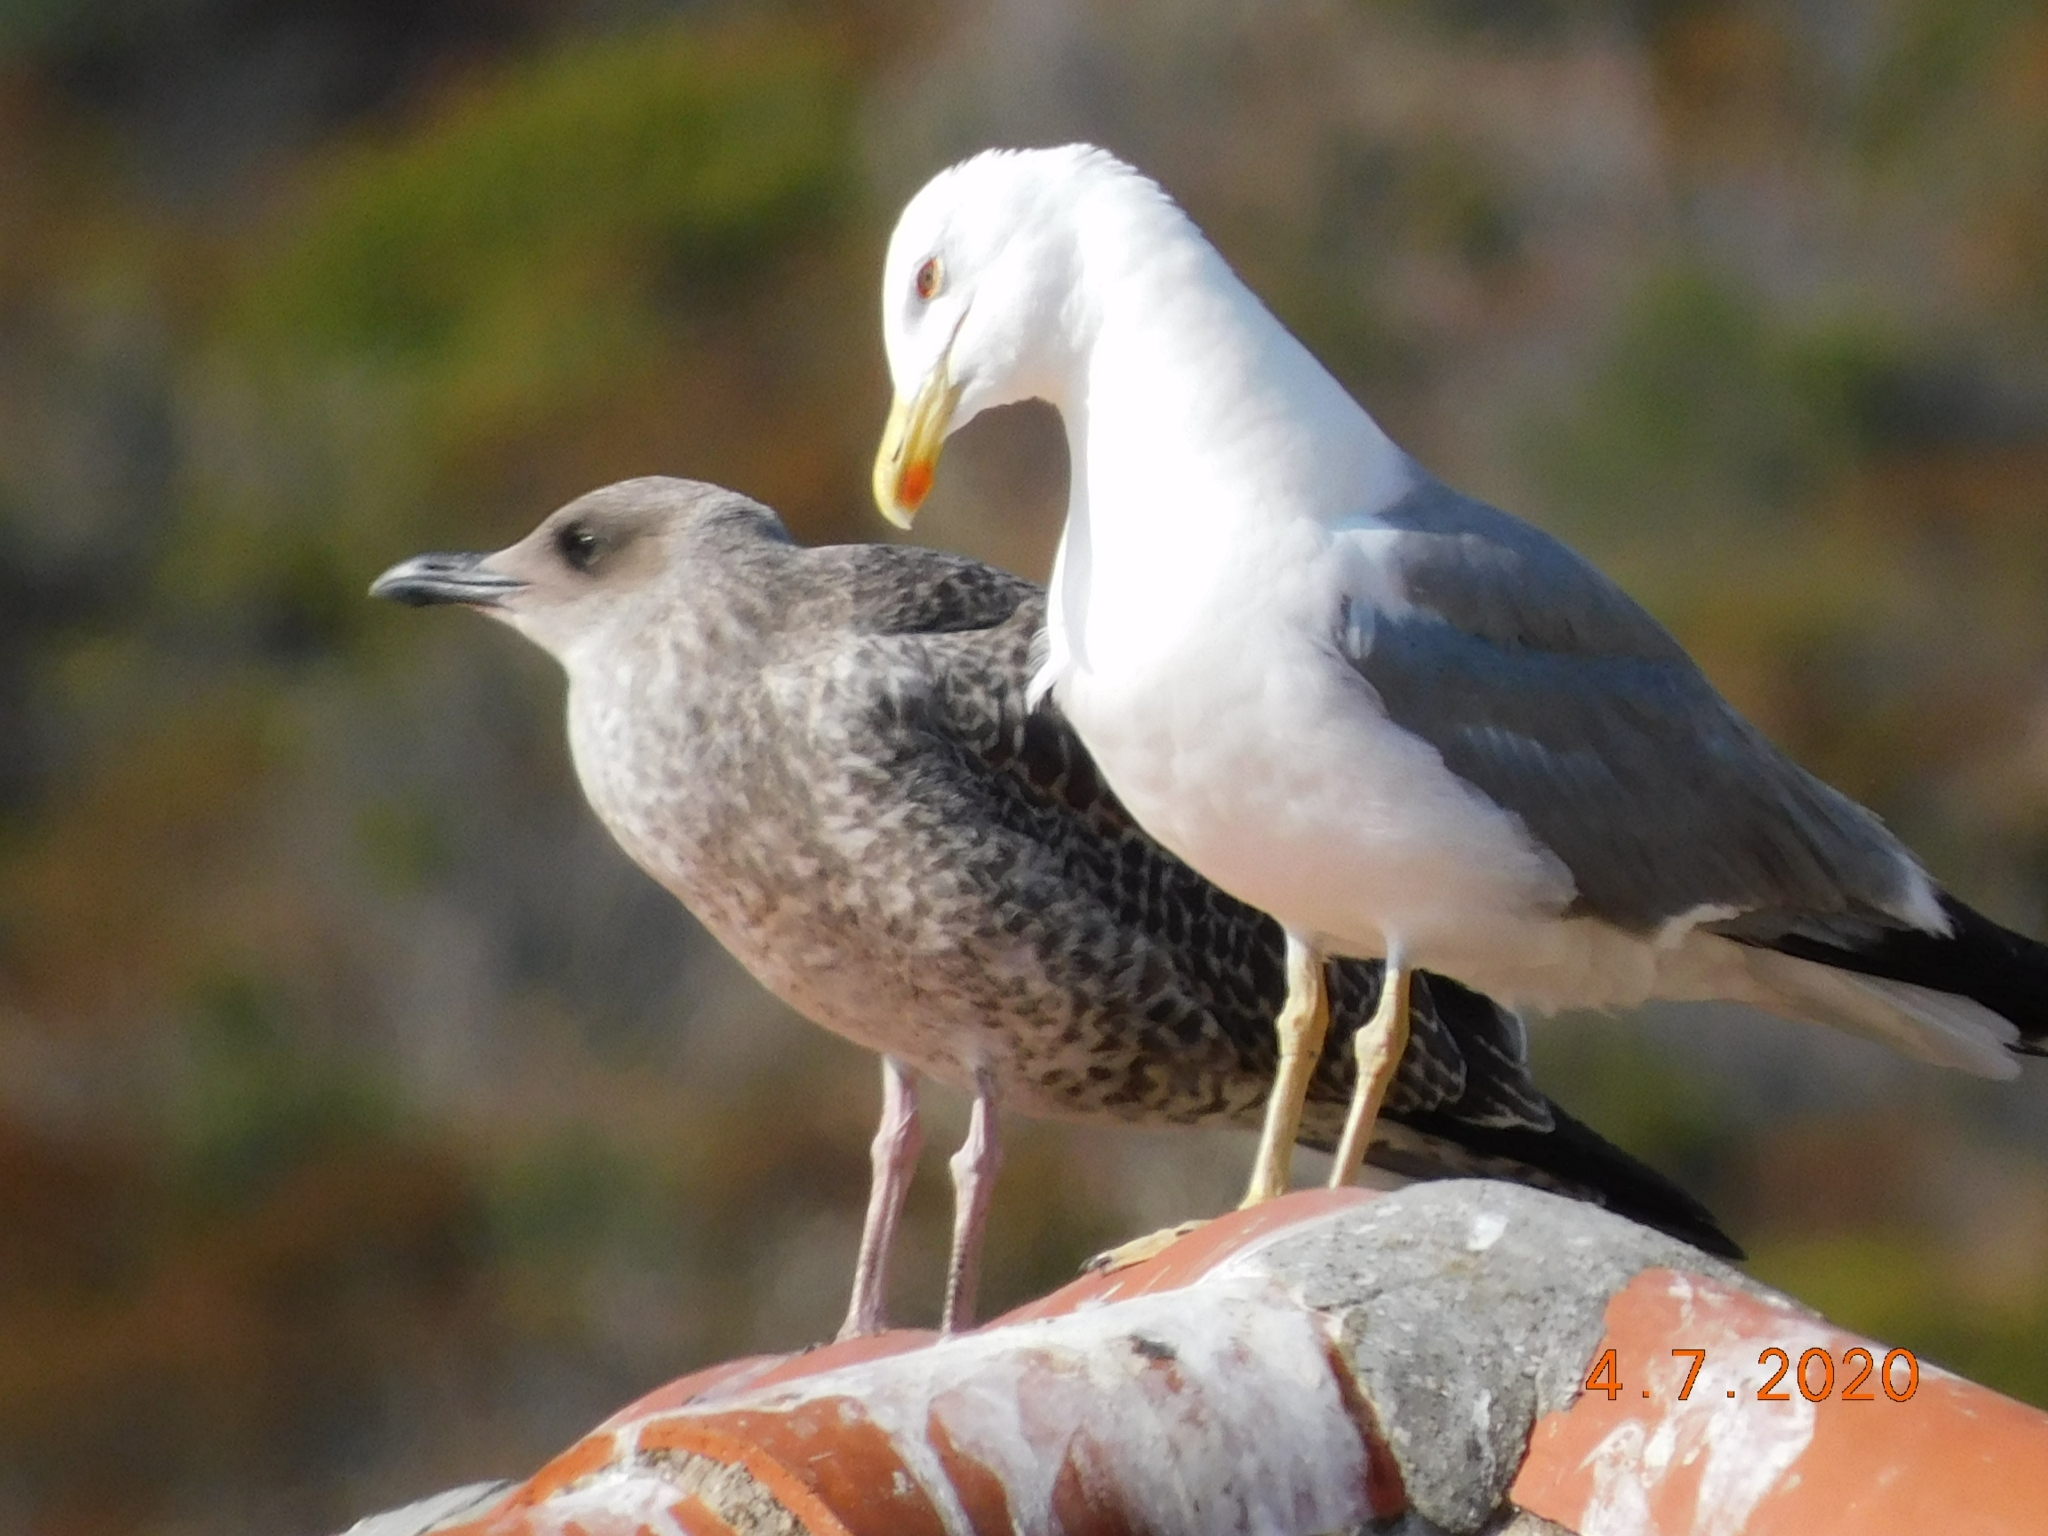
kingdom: Animalia
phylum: Chordata
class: Aves
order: Charadriiformes
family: Laridae
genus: Larus
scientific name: Larus michahellis
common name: Yellow-legged gull
